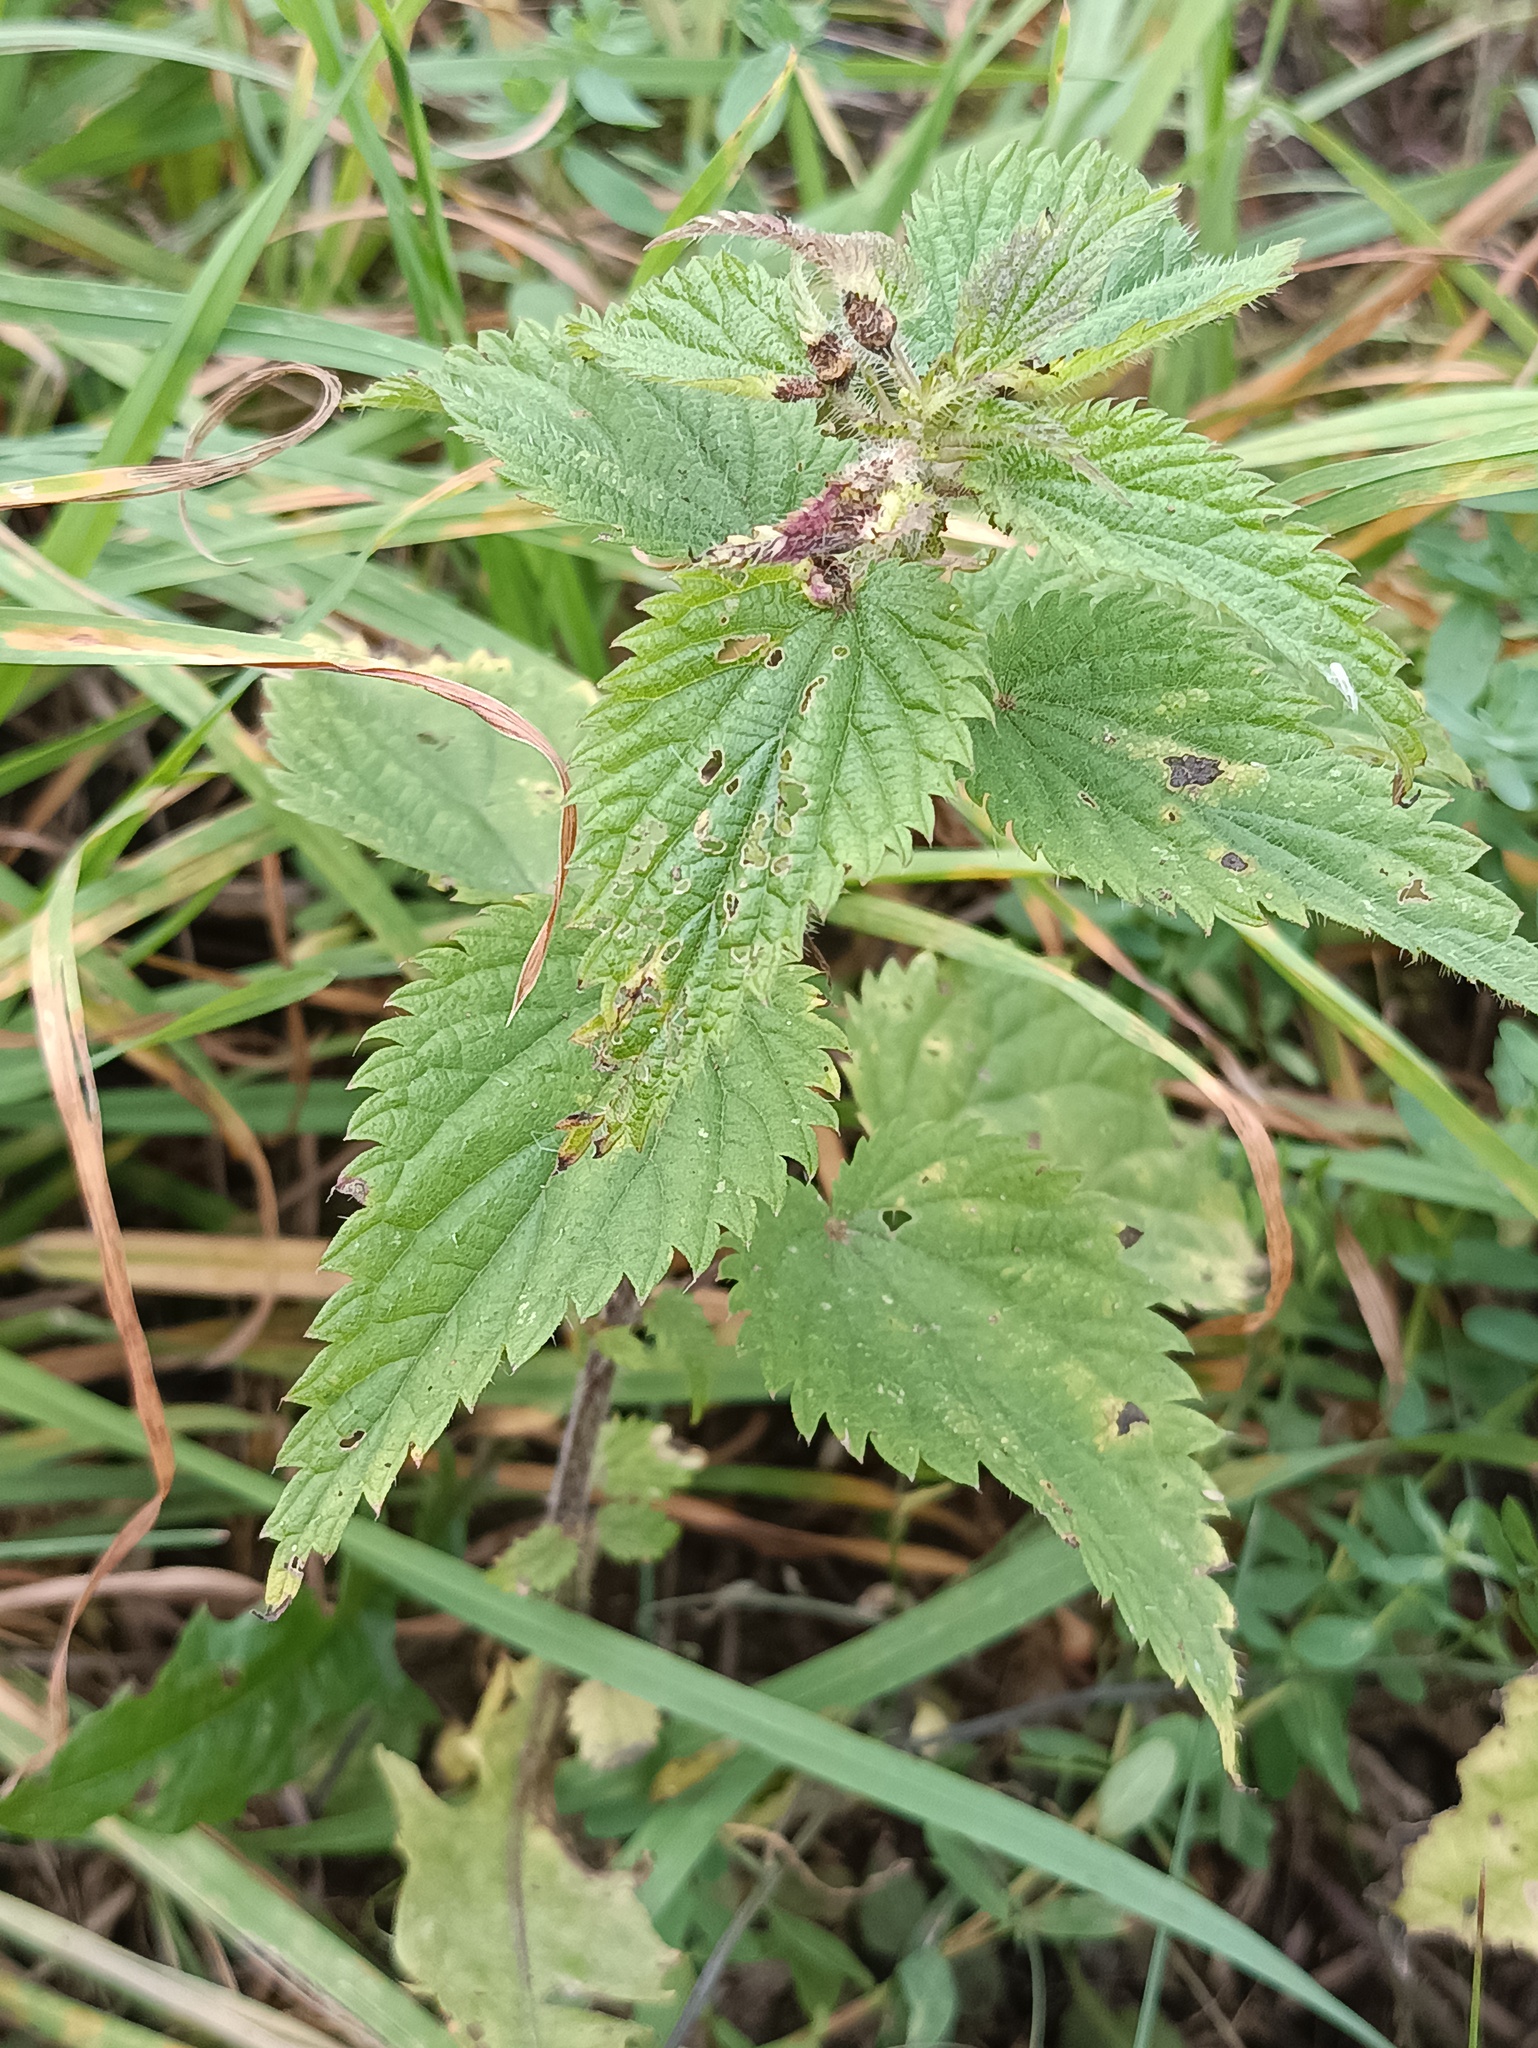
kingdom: Plantae
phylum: Tracheophyta
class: Magnoliopsida
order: Rosales
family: Urticaceae
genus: Urtica
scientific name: Urtica dioica
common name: Common nettle
